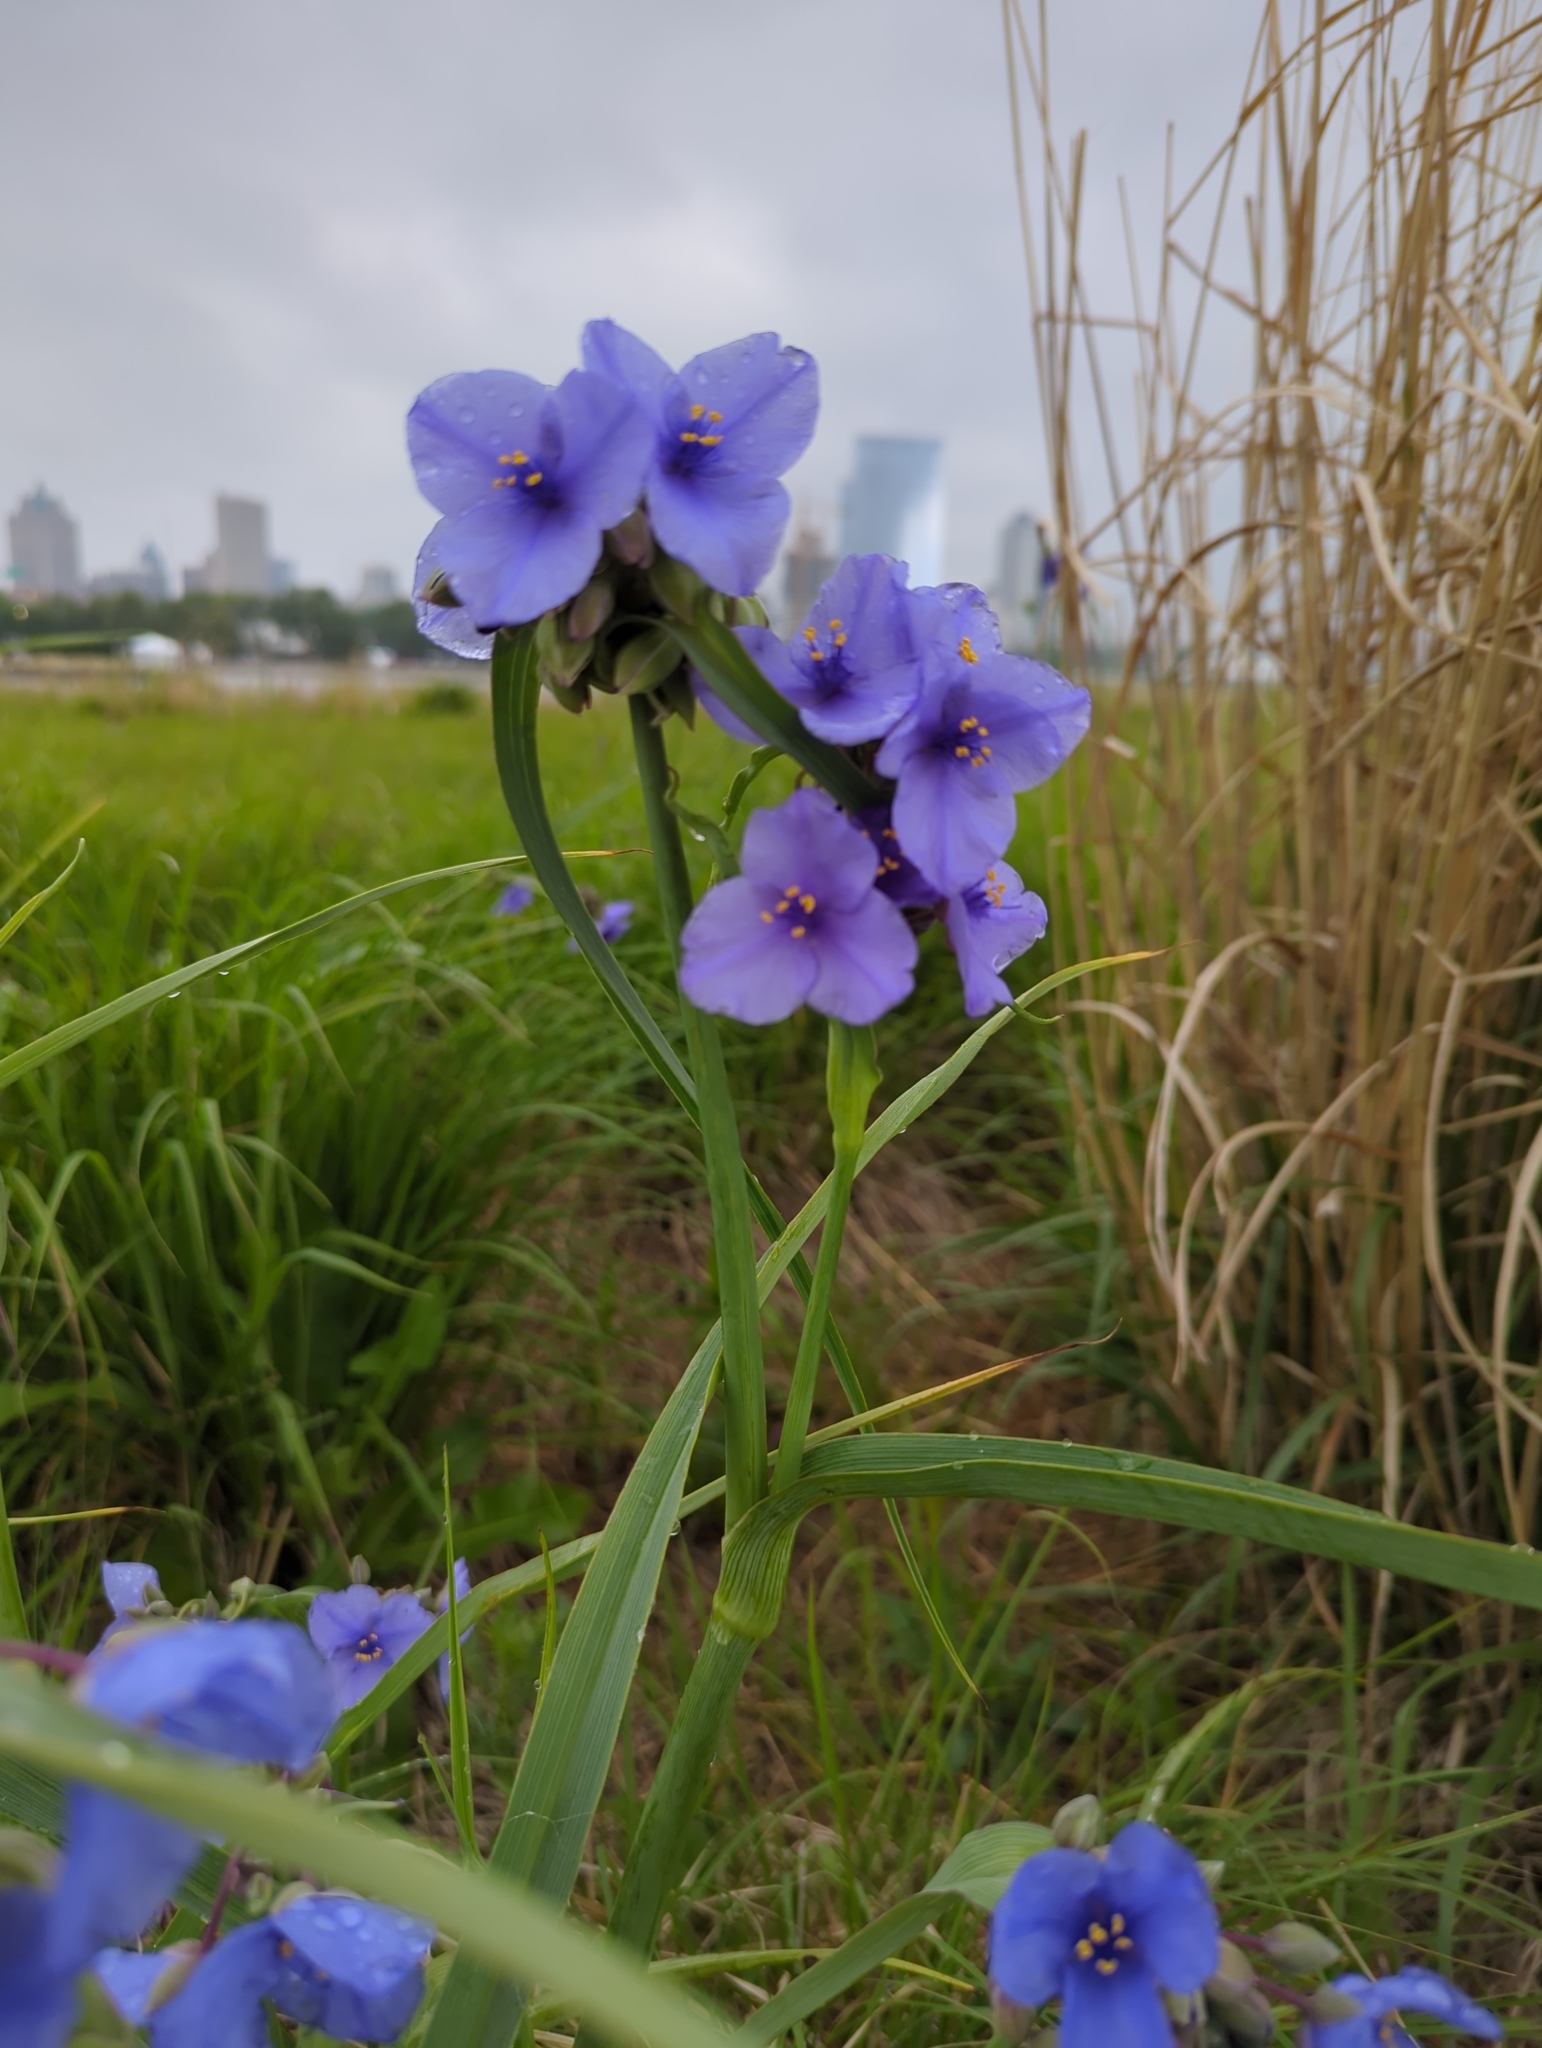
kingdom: Plantae
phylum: Tracheophyta
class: Liliopsida
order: Commelinales
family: Commelinaceae
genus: Tradescantia
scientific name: Tradescantia ohiensis
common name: Ohio spiderwort
